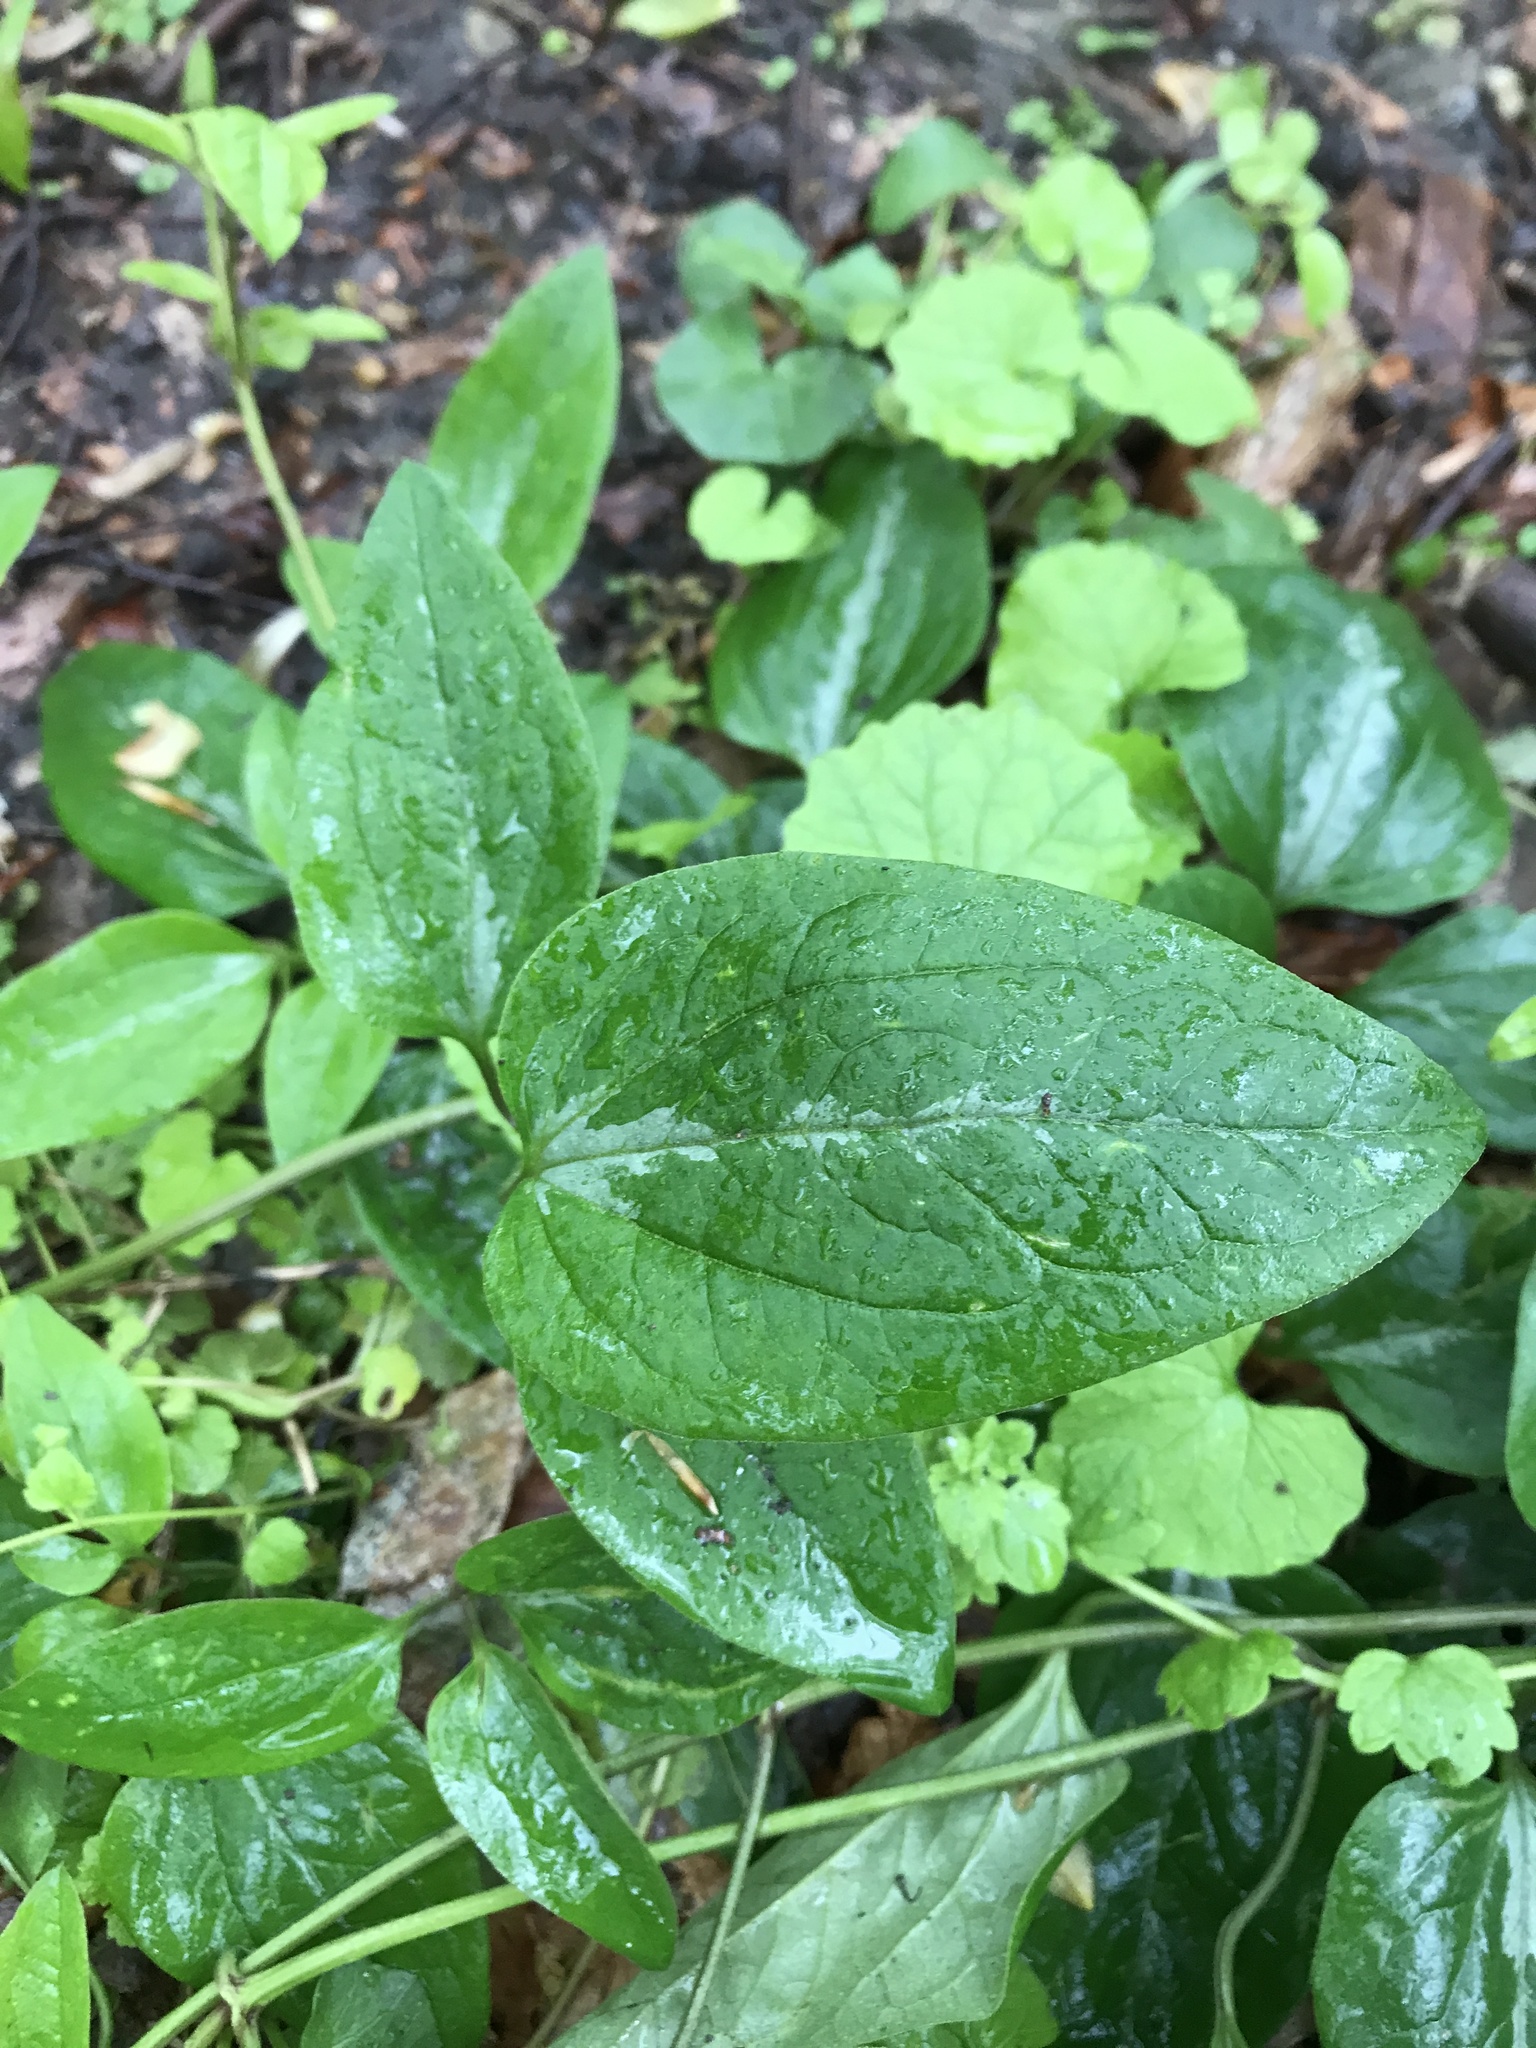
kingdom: Plantae
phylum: Tracheophyta
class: Magnoliopsida
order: Ranunculales
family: Ranunculaceae
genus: Clematis
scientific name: Clematis terniflora
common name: Sweet autumn clematis
